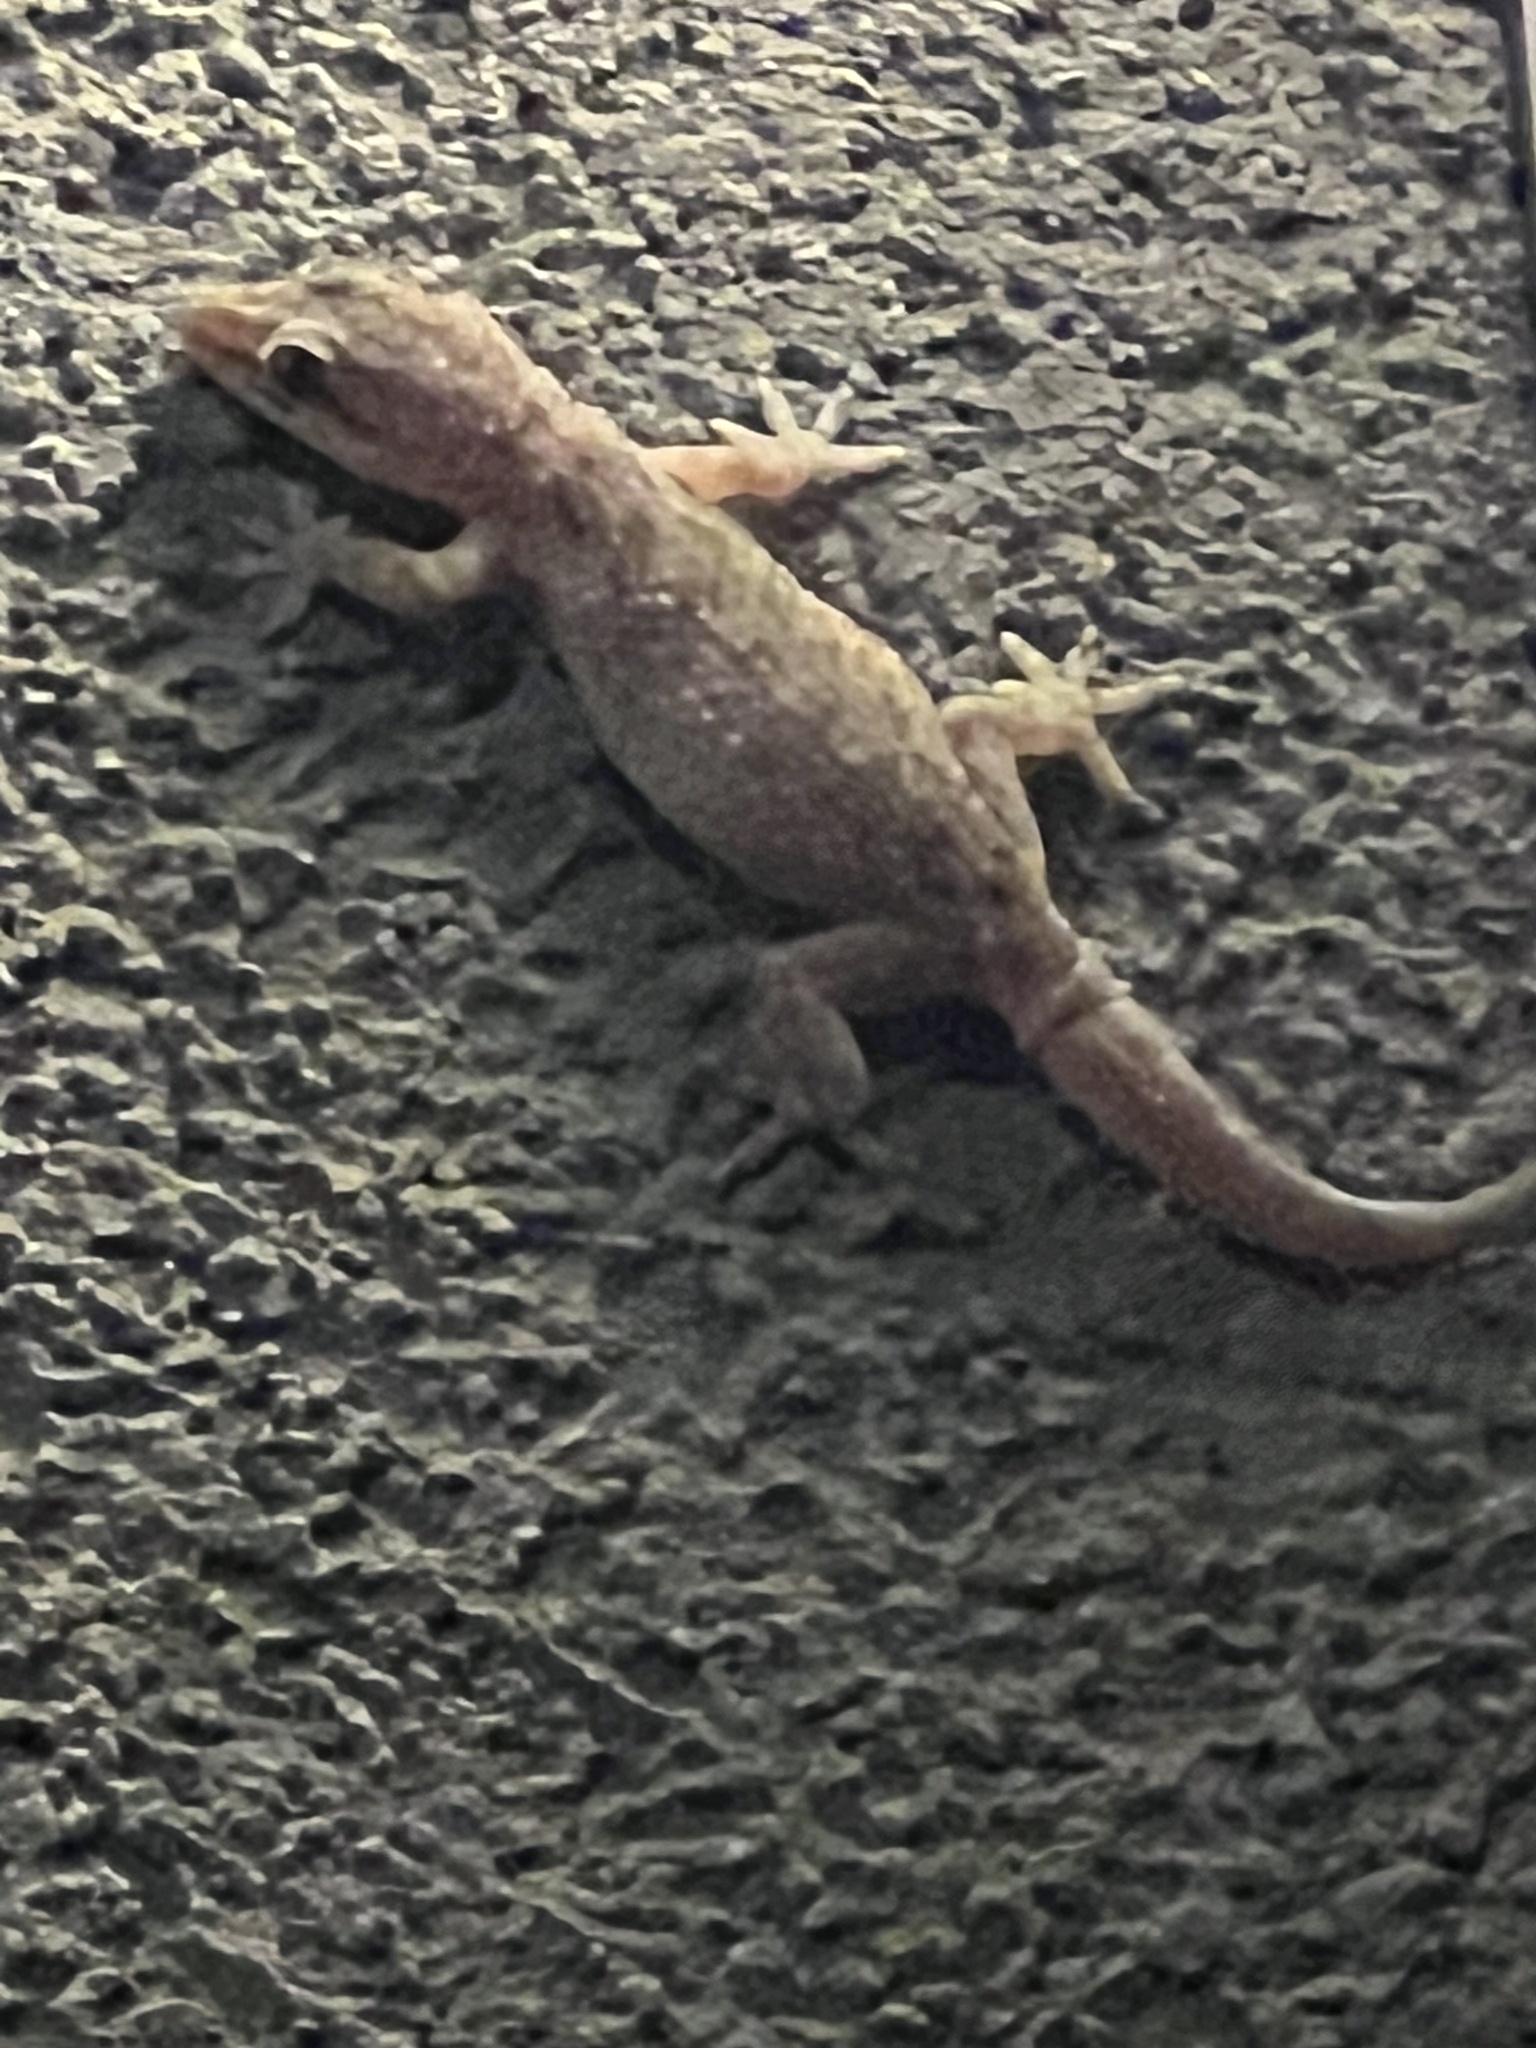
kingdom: Animalia
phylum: Chordata
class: Squamata
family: Gekkonidae
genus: Hemidactylus
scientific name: Hemidactylus parvimaculatus
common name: Spotted house gecko
